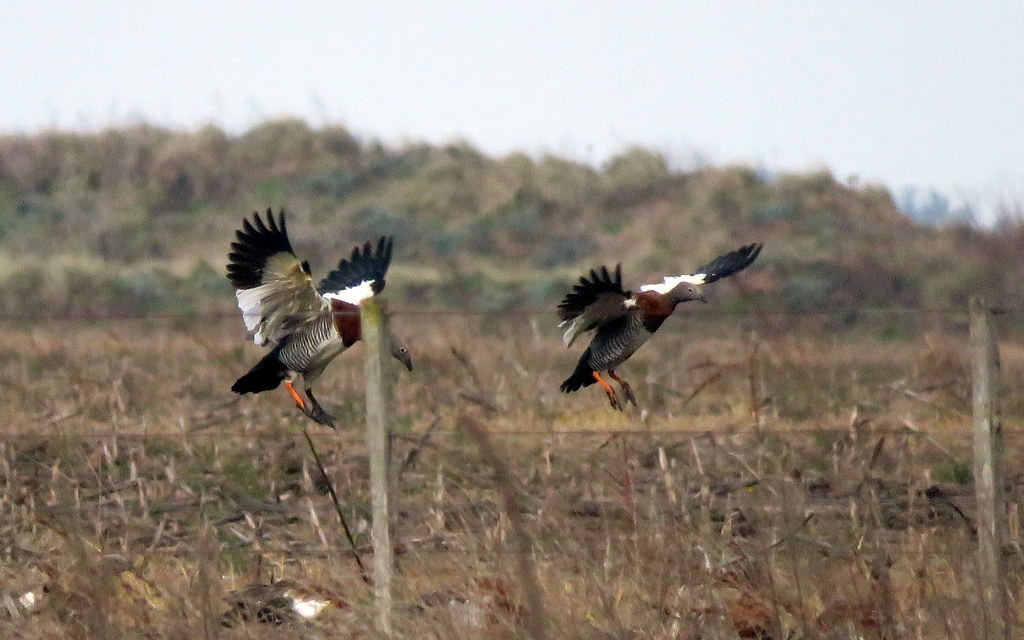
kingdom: Animalia
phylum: Chordata
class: Aves
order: Anseriformes
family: Anatidae
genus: Chloephaga
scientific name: Chloephaga poliocephala
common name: Ashy-headed goose
